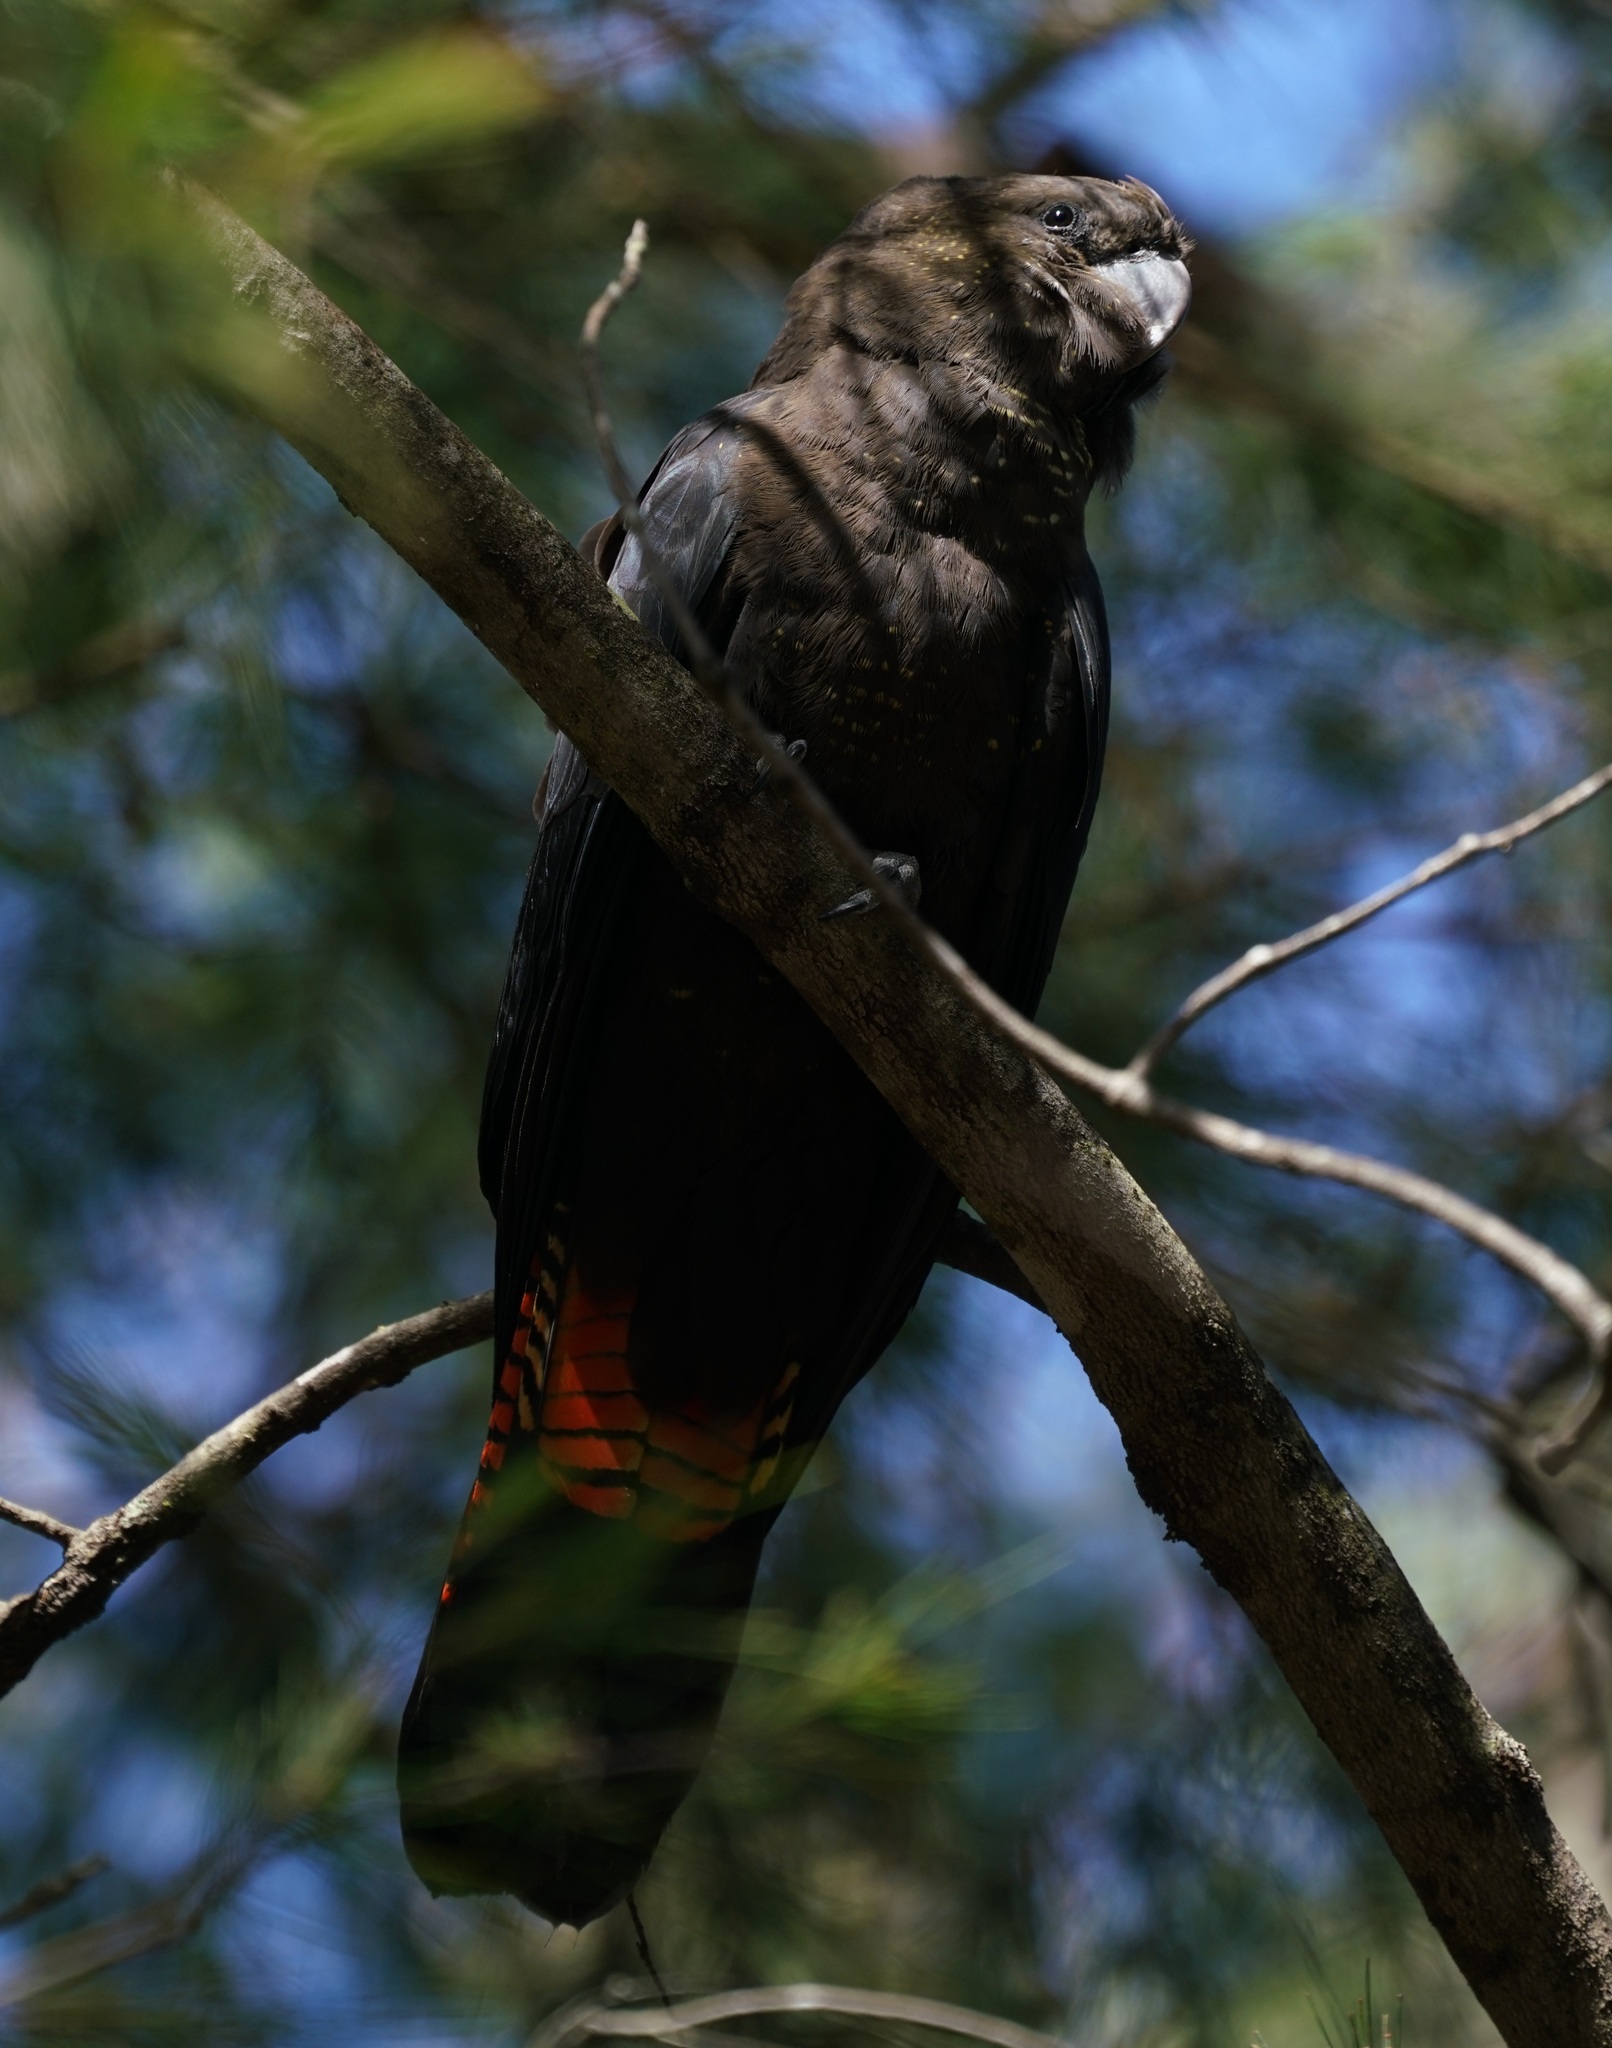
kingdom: Animalia
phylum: Chordata
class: Aves
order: Psittaciformes
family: Psittacidae
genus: Calyptorhynchus
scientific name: Calyptorhynchus lathami
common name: Glossy black cockatoo
